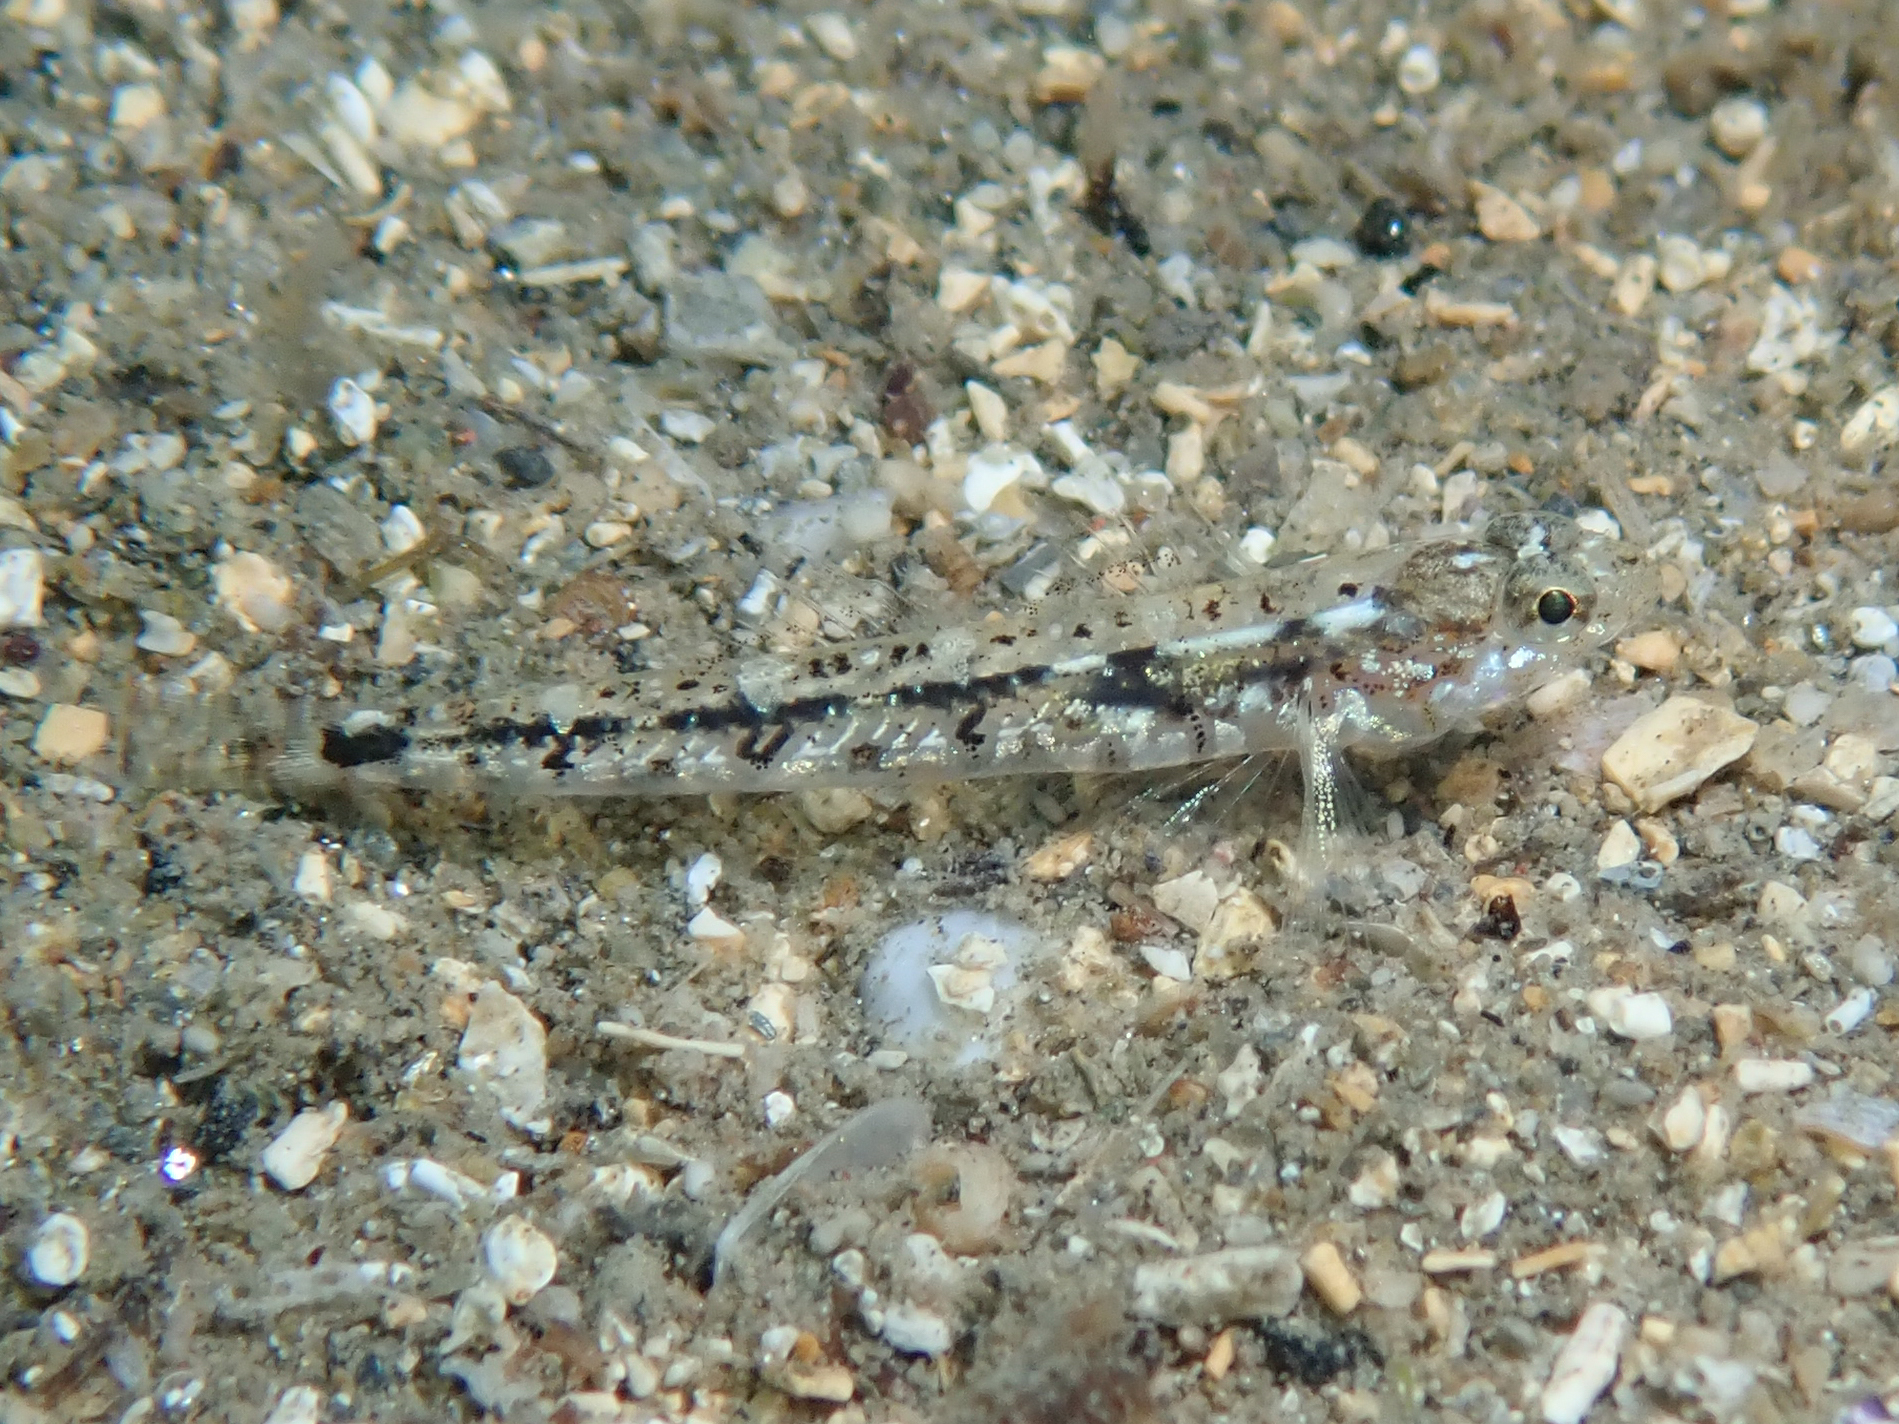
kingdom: Animalia
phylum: Chordata
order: Perciformes
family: Gobiidae
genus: Pomatoschistus
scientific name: Pomatoschistus bathi
